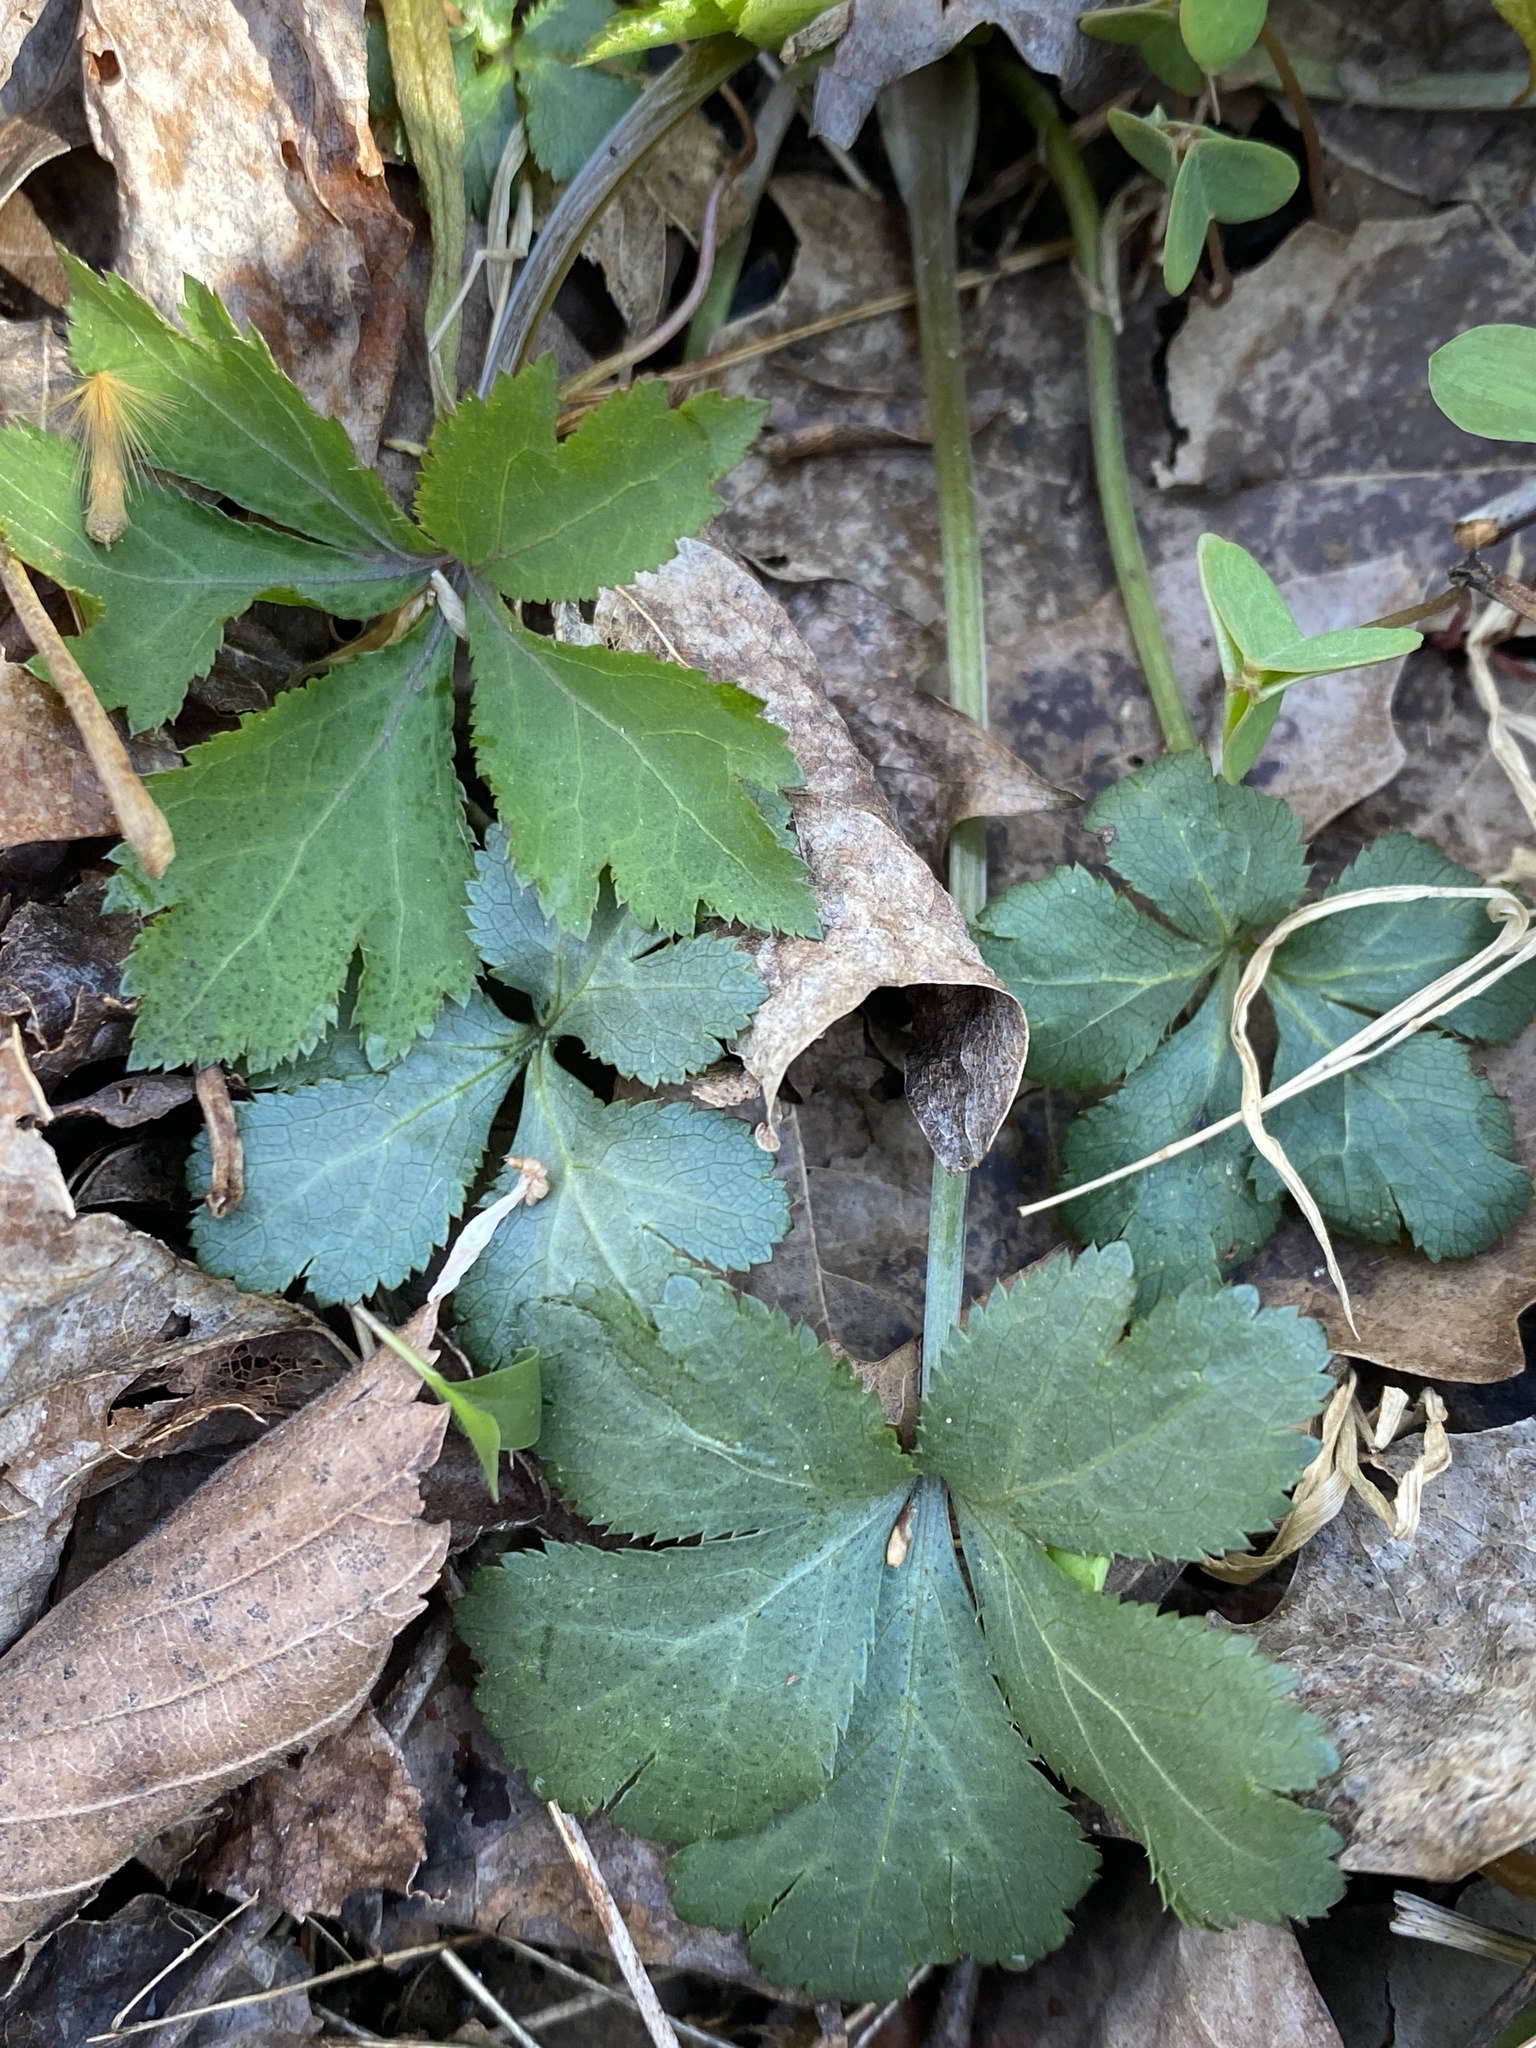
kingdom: Plantae
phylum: Tracheophyta
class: Magnoliopsida
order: Apiales
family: Apiaceae
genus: Sanicula
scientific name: Sanicula canadensis
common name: Canada sanicle
